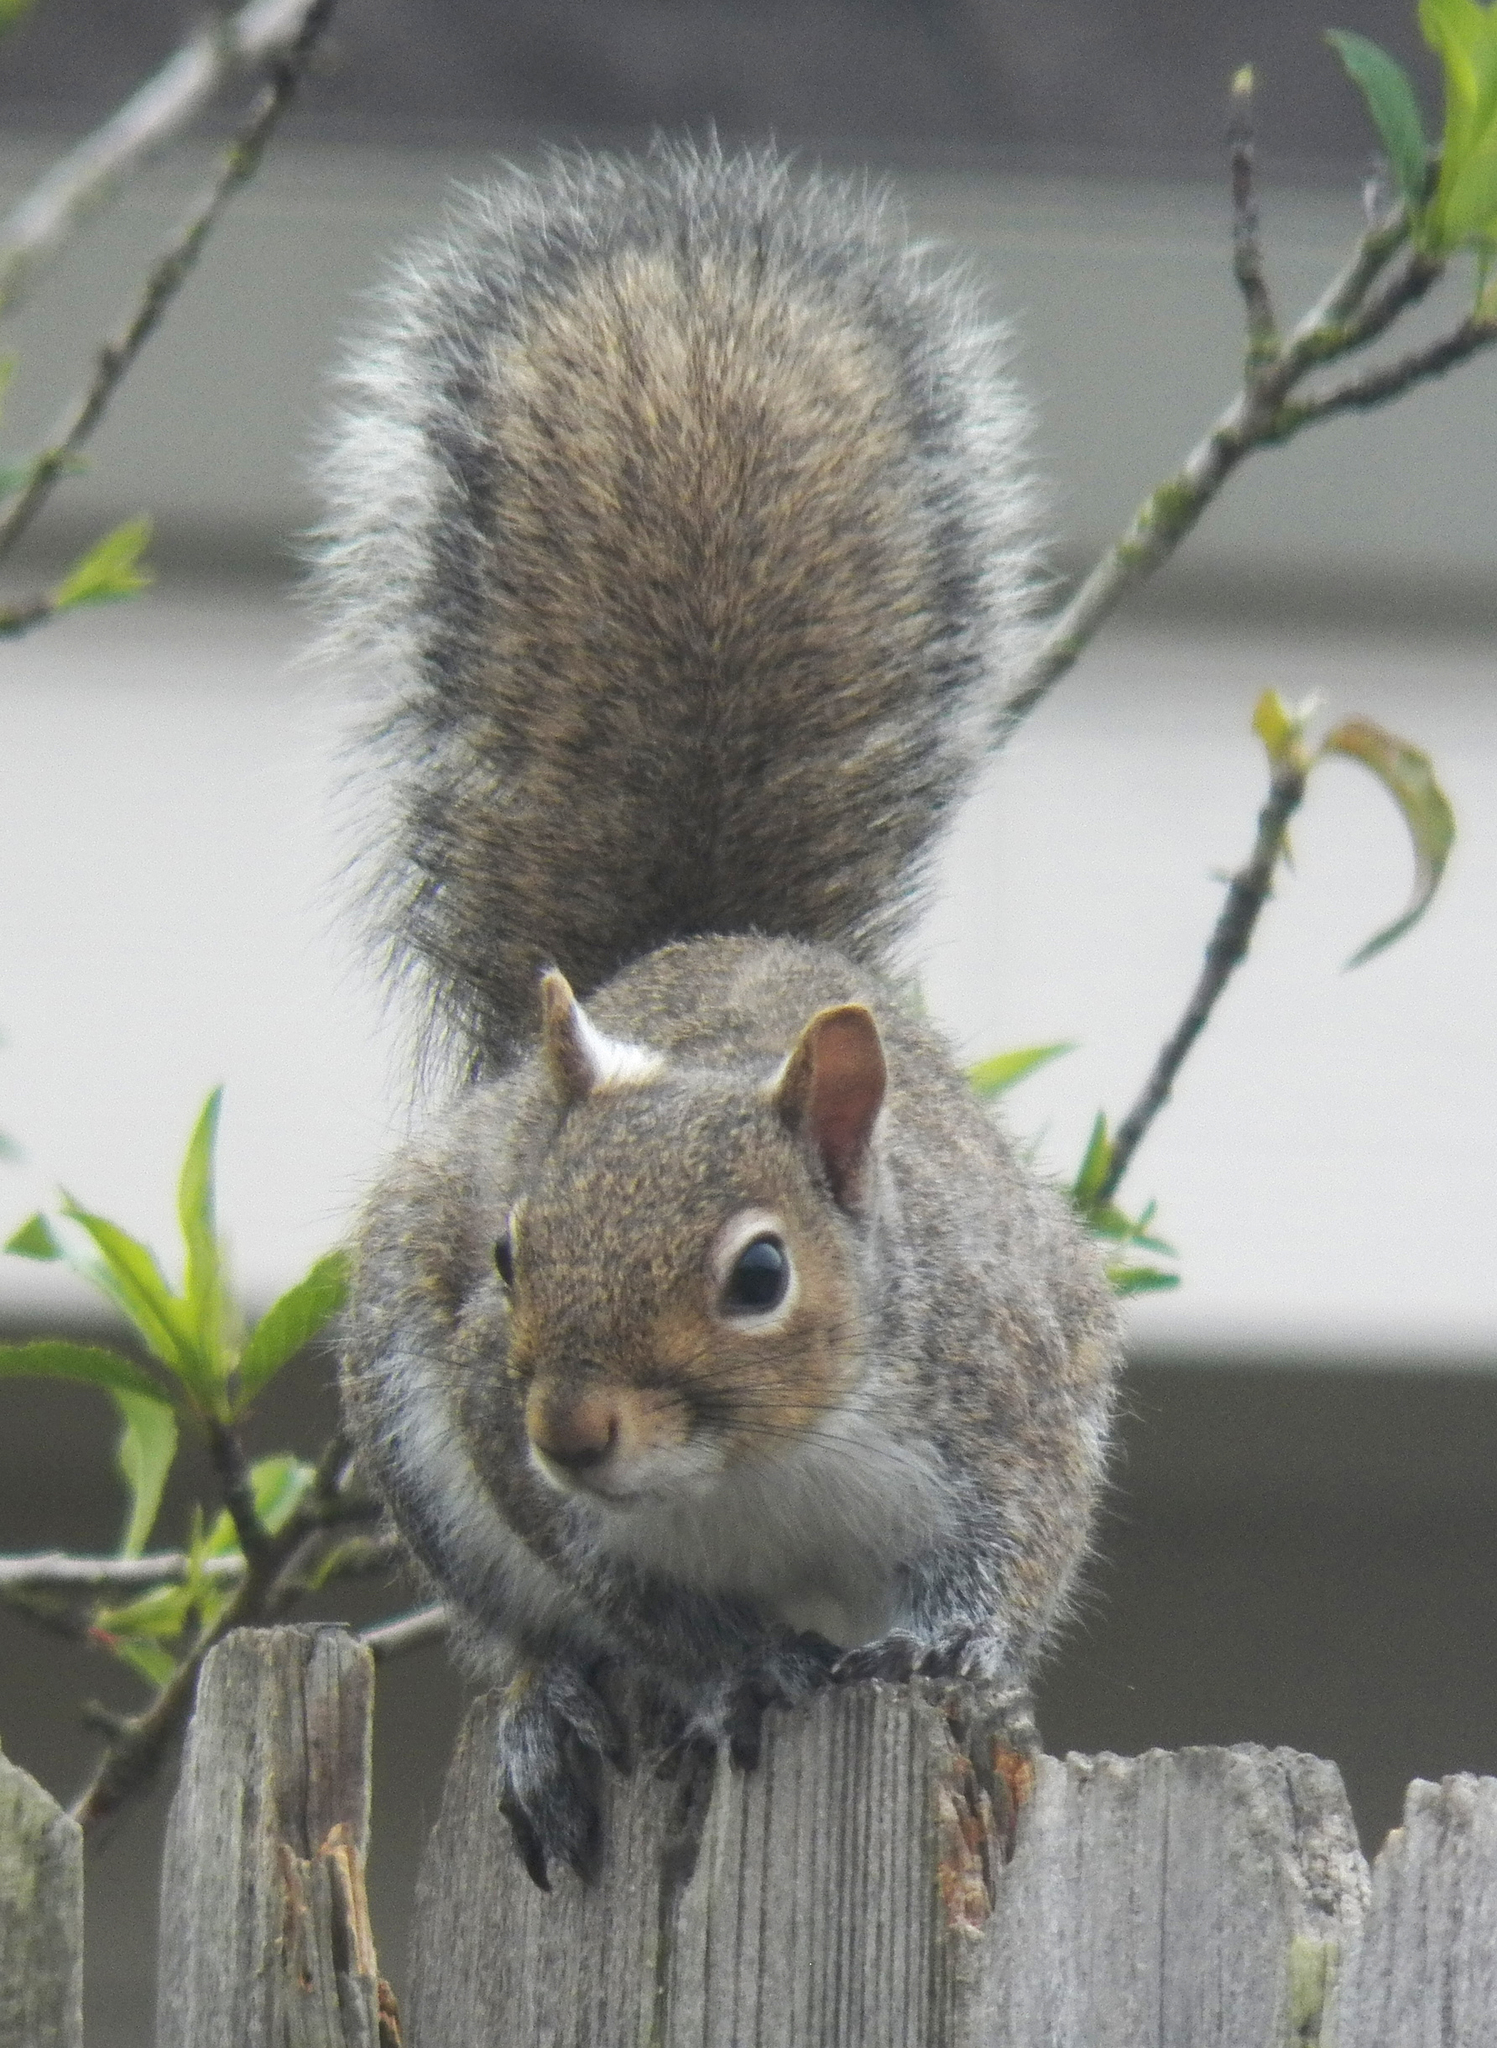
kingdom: Animalia
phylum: Chordata
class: Mammalia
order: Rodentia
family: Sciuridae
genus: Sciurus
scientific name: Sciurus carolinensis
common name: Eastern gray squirrel
